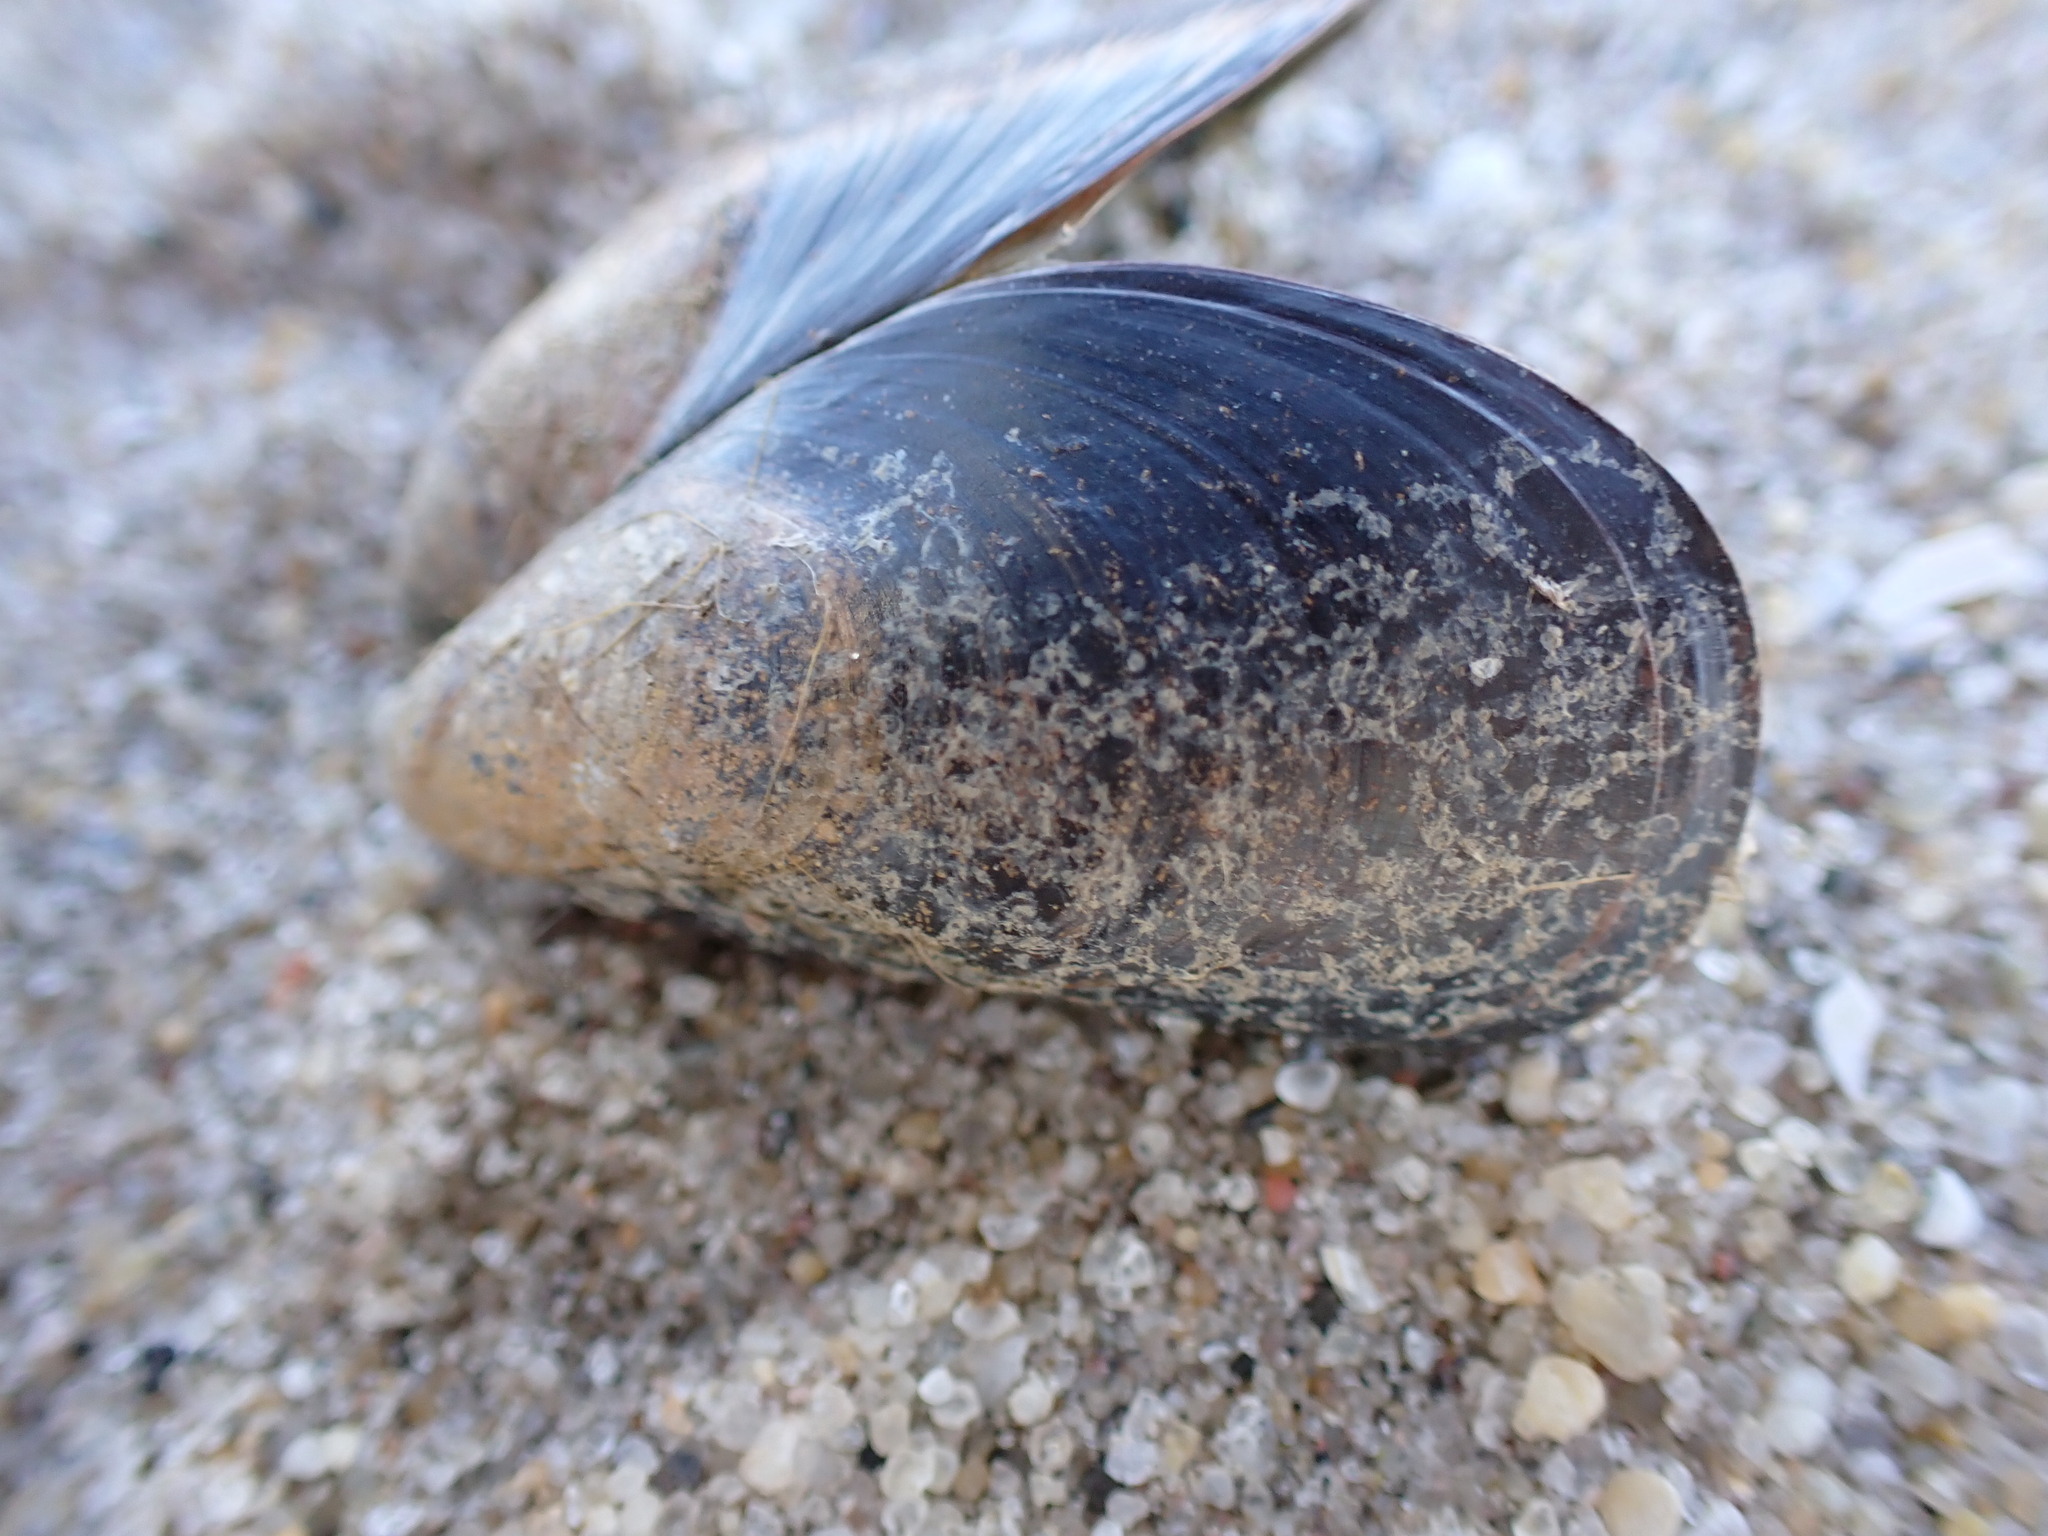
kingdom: Animalia
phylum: Mollusca
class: Bivalvia
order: Mytilida
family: Mytilidae
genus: Mytilus
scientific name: Mytilus edulis
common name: Blue mussel
